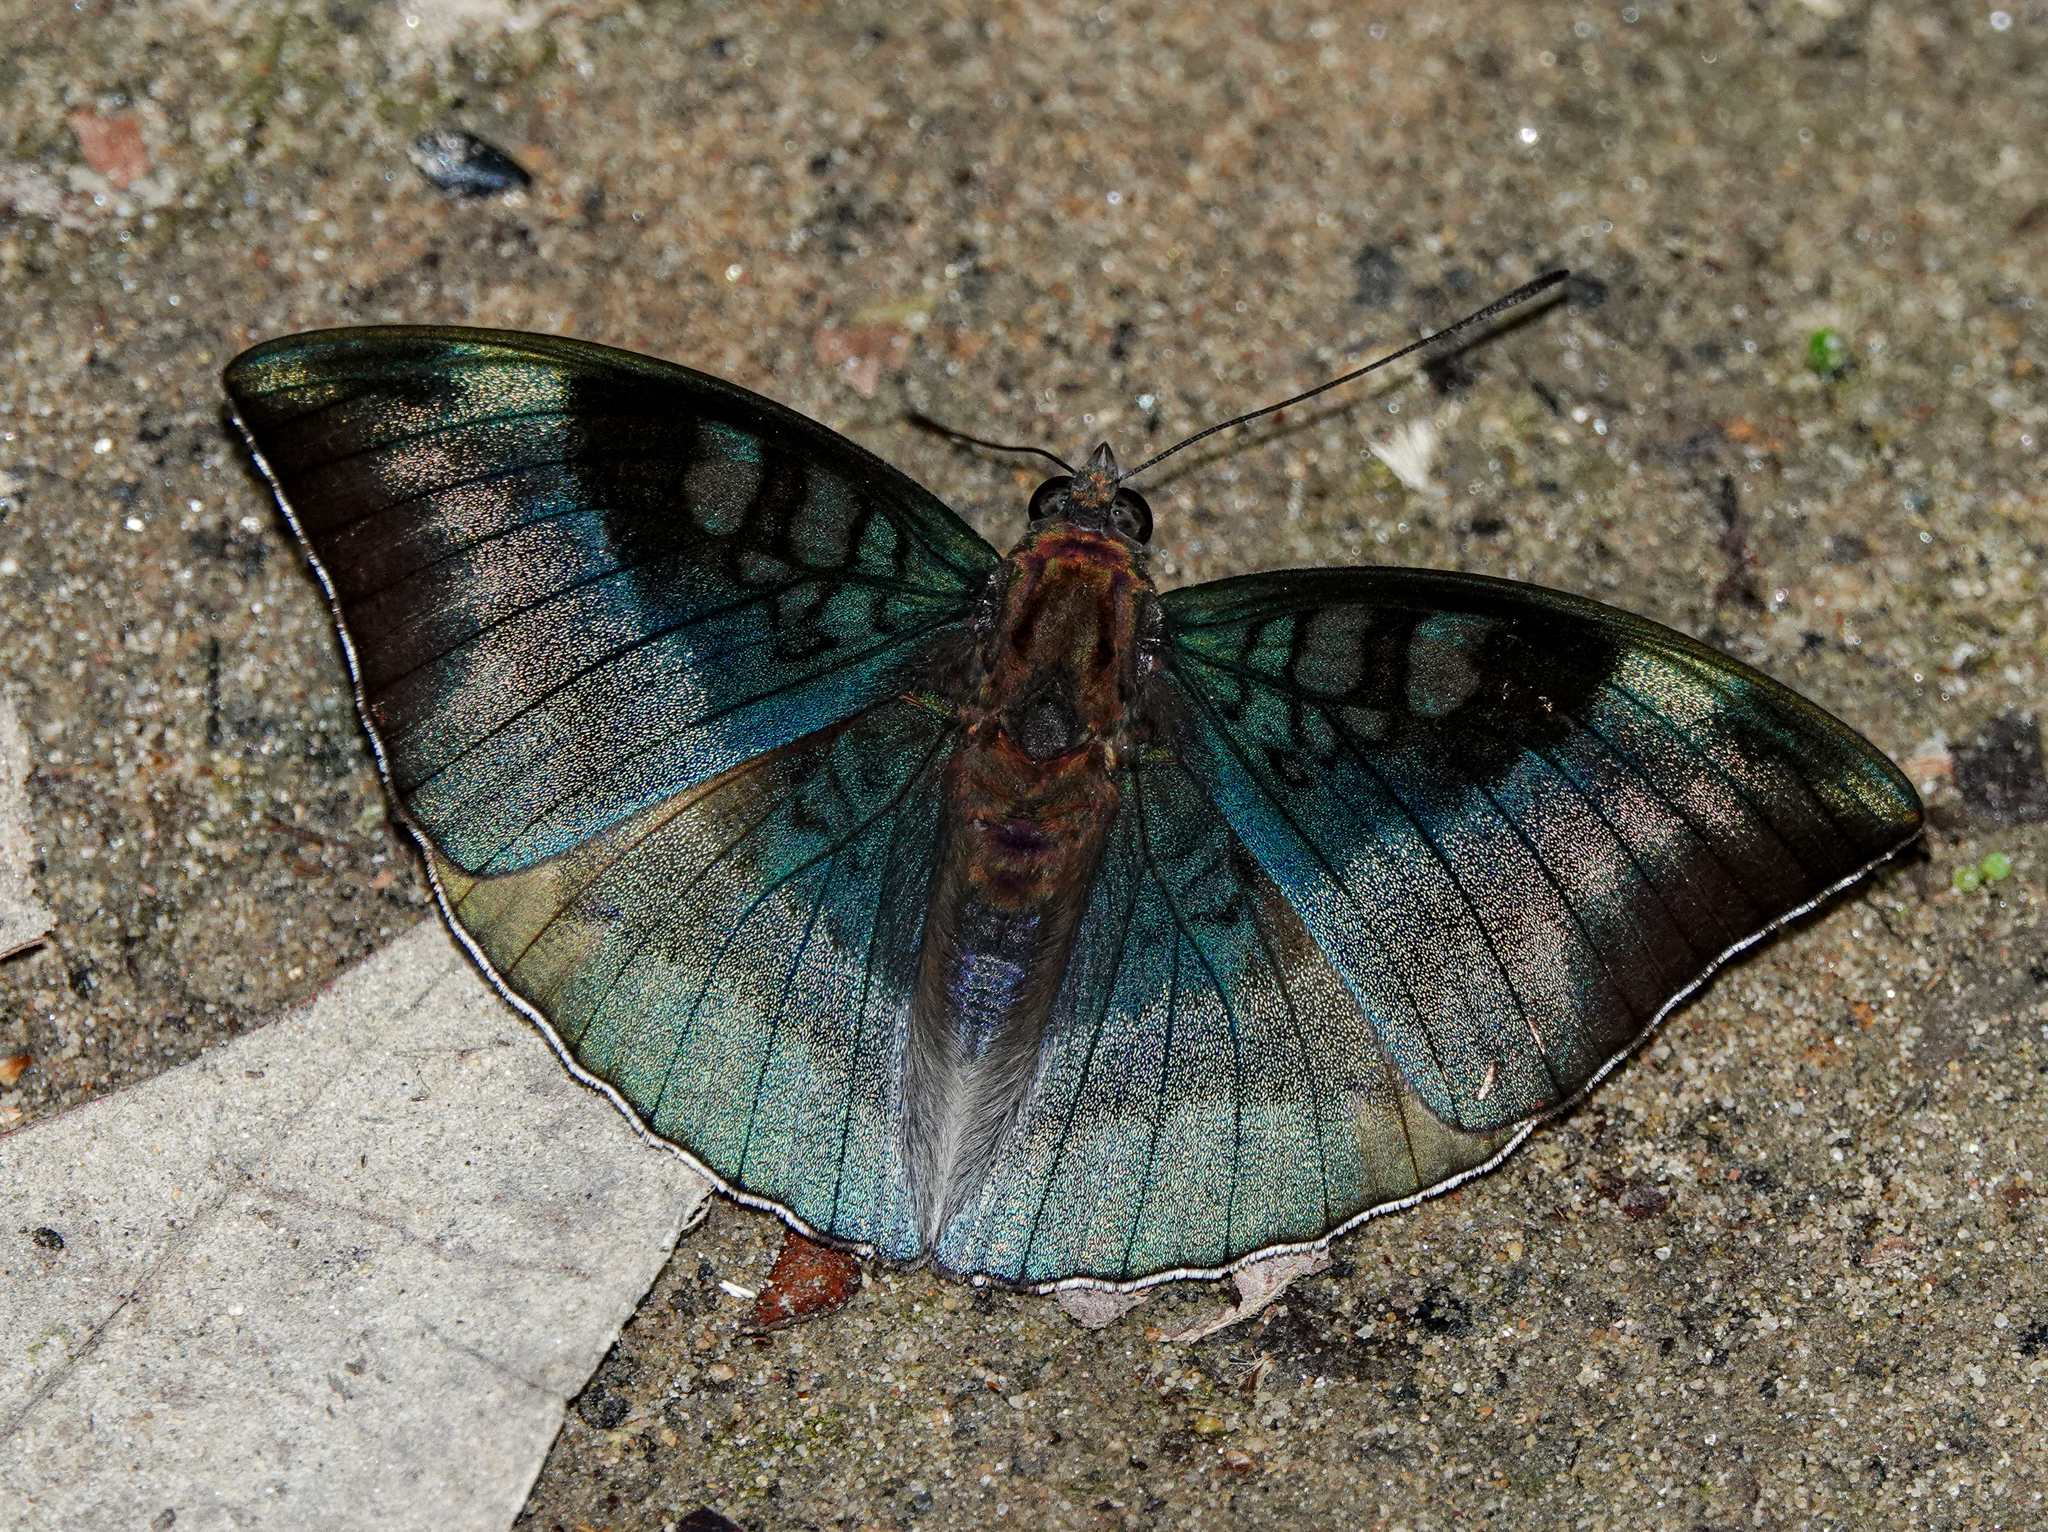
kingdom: Animalia
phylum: Arthropoda
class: Insecta
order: Lepidoptera
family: Nymphalidae
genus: Euthalia
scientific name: Euthalia monina
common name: Powdered baron
